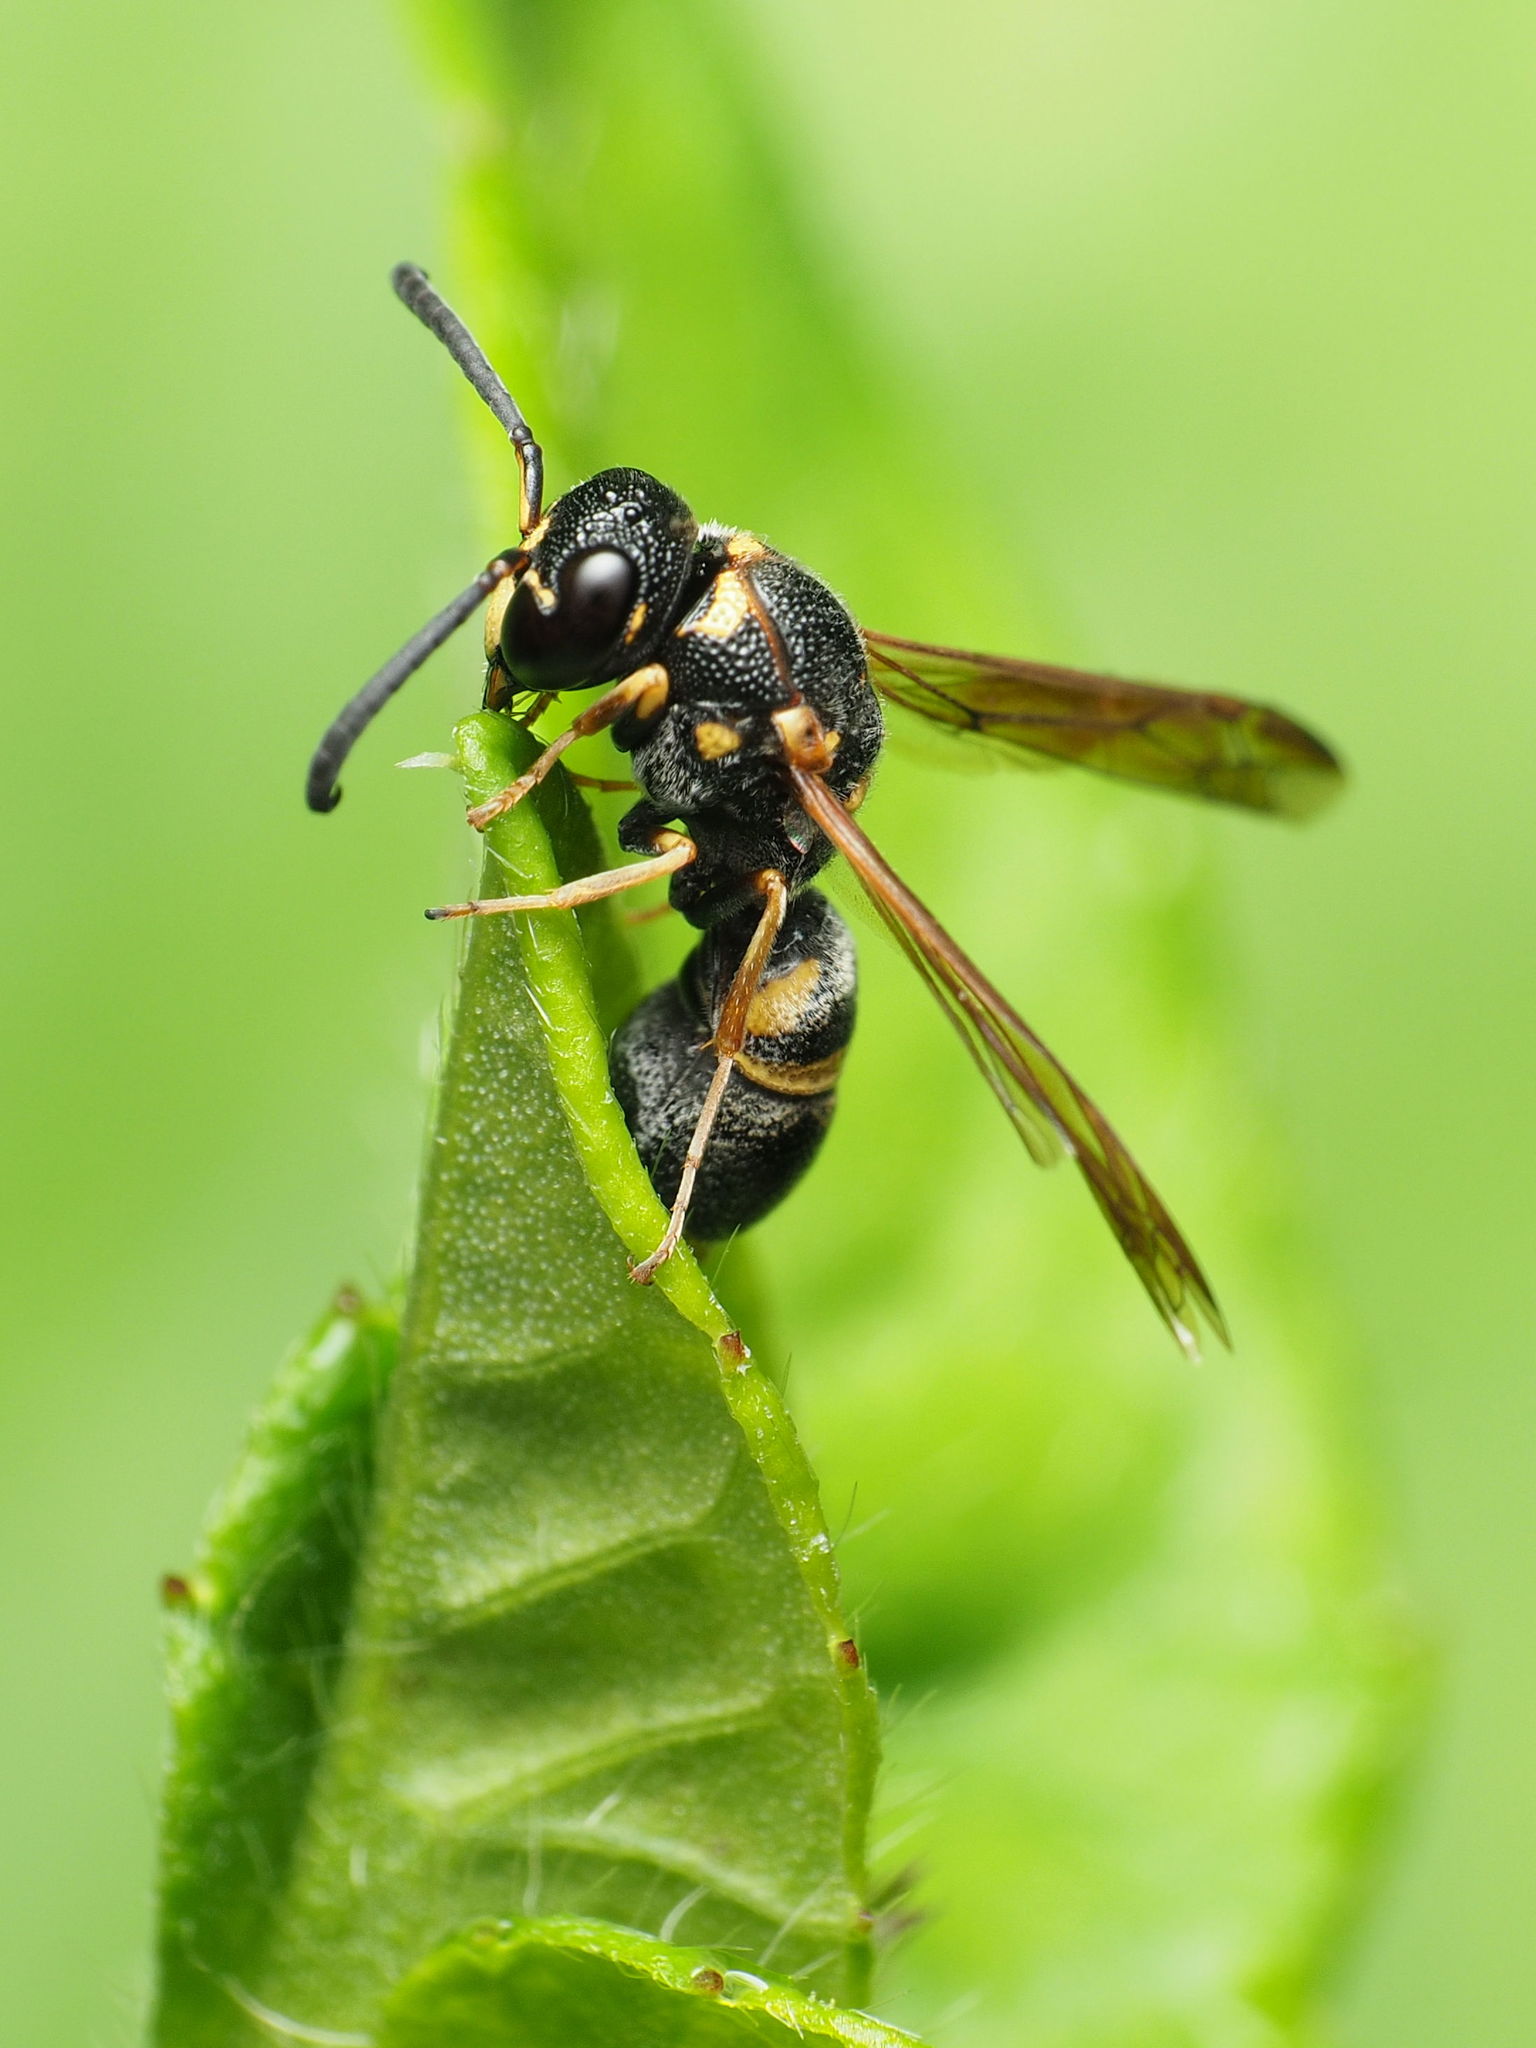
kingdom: Animalia
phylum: Arthropoda
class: Insecta
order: Hymenoptera
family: Eumenidae
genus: Parancistrocerus
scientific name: Parancistrocerus fulvipes
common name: Potter wasp
